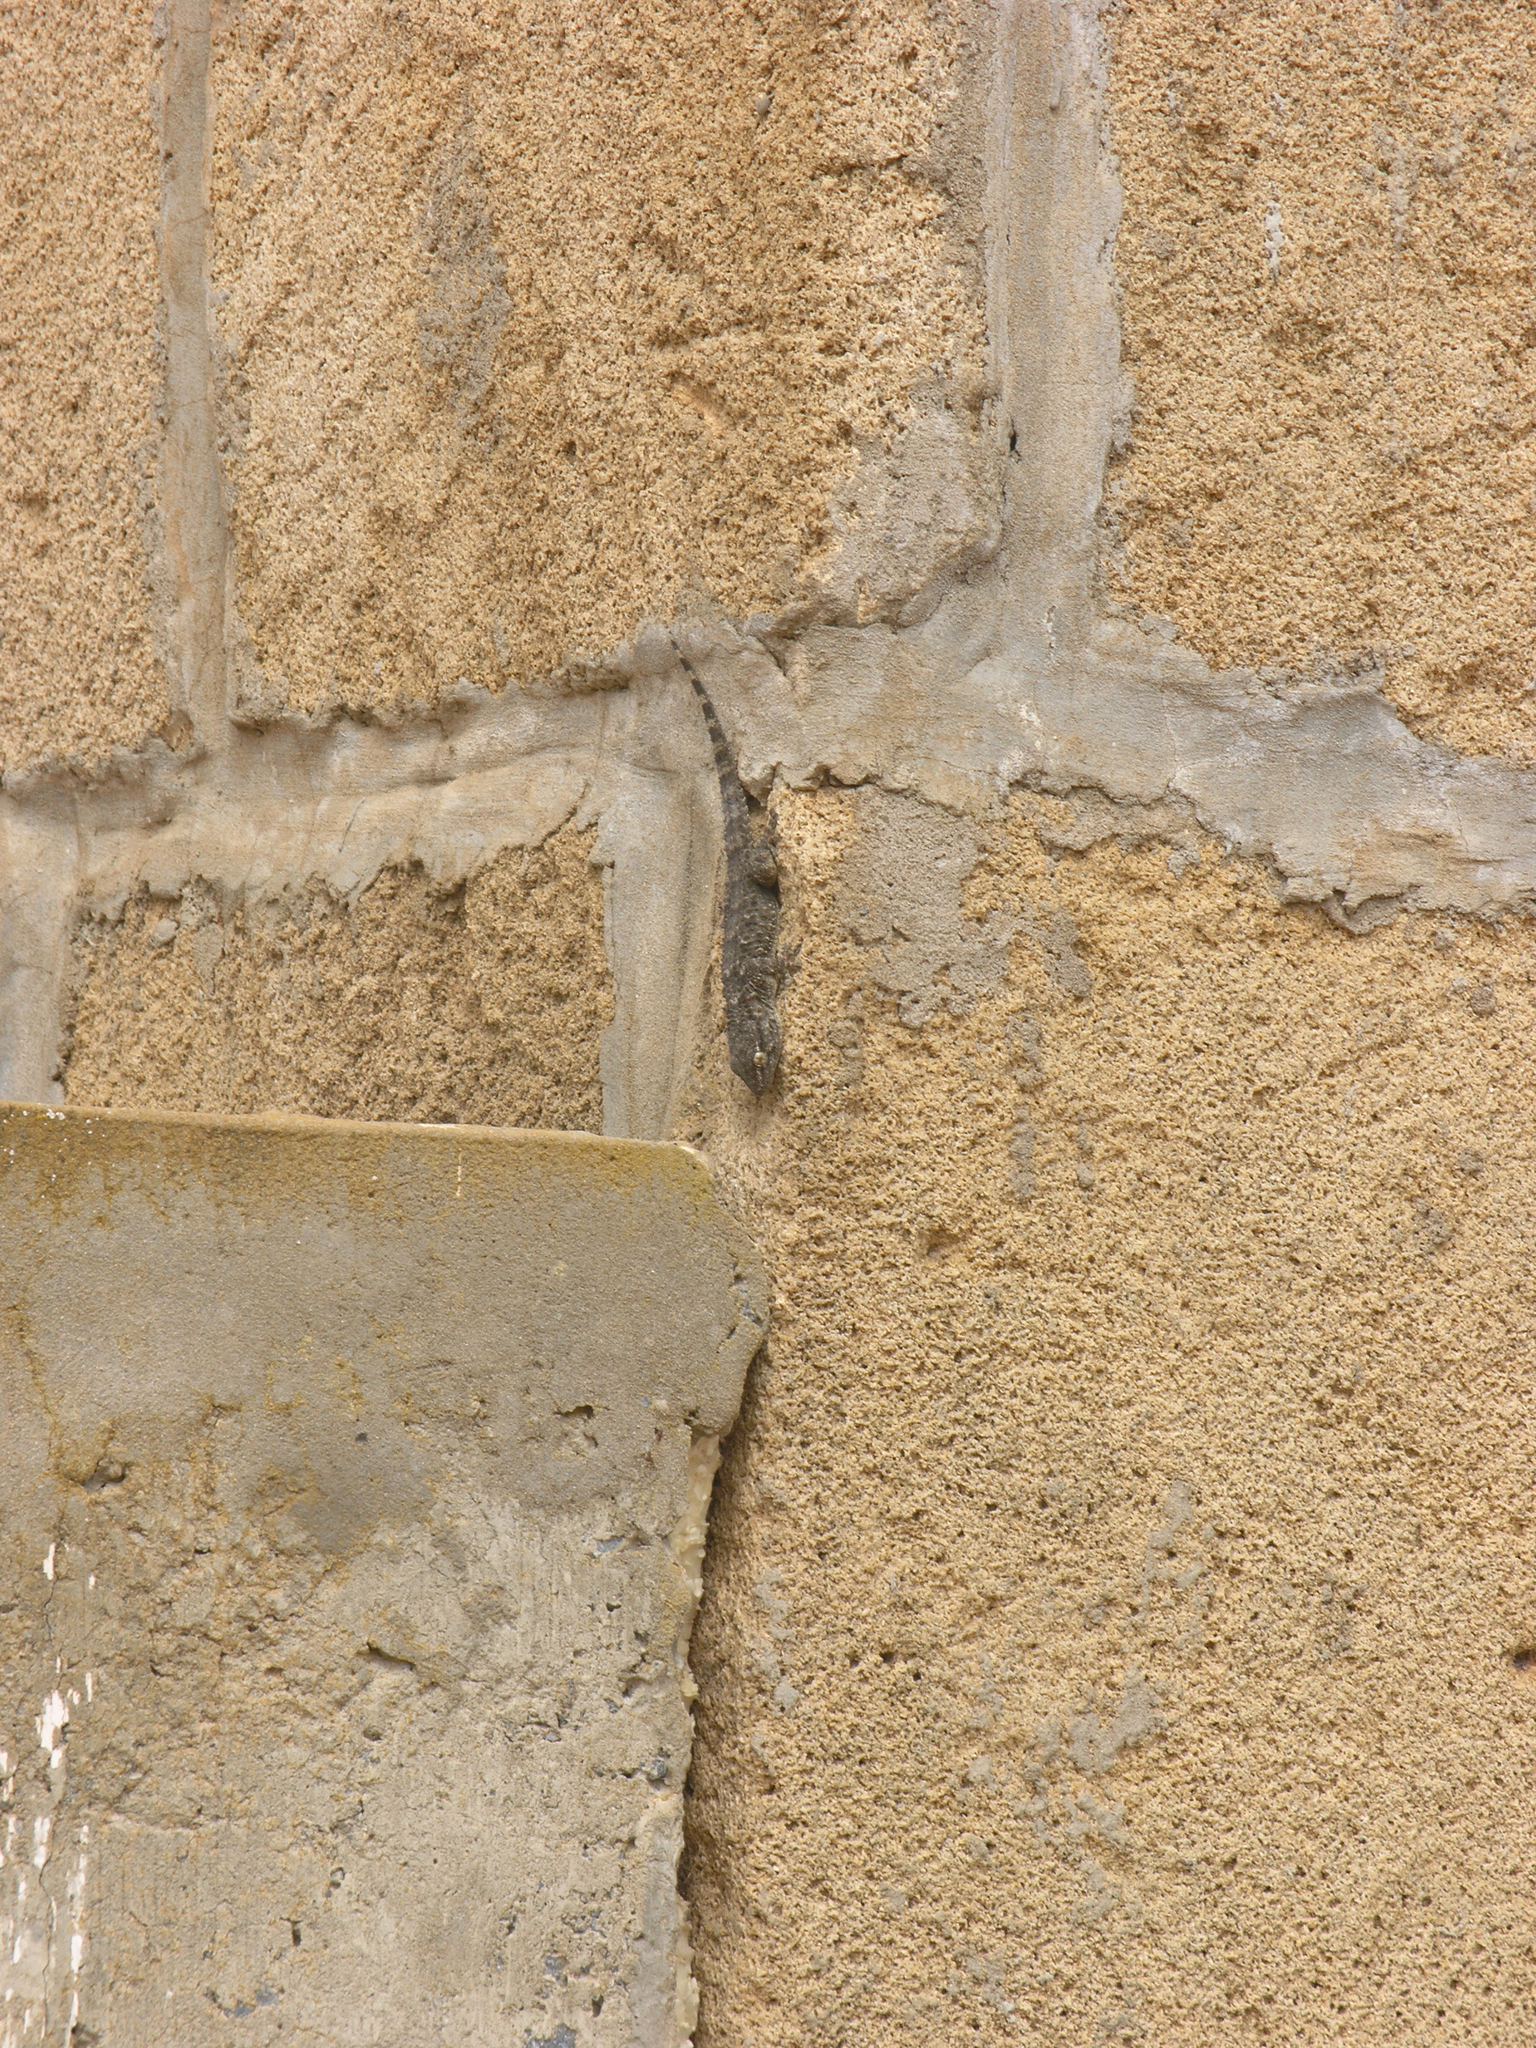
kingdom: Animalia
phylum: Chordata
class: Squamata
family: Phyllodactylidae
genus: Tarentola
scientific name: Tarentola mauritanica
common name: Moorish gecko
